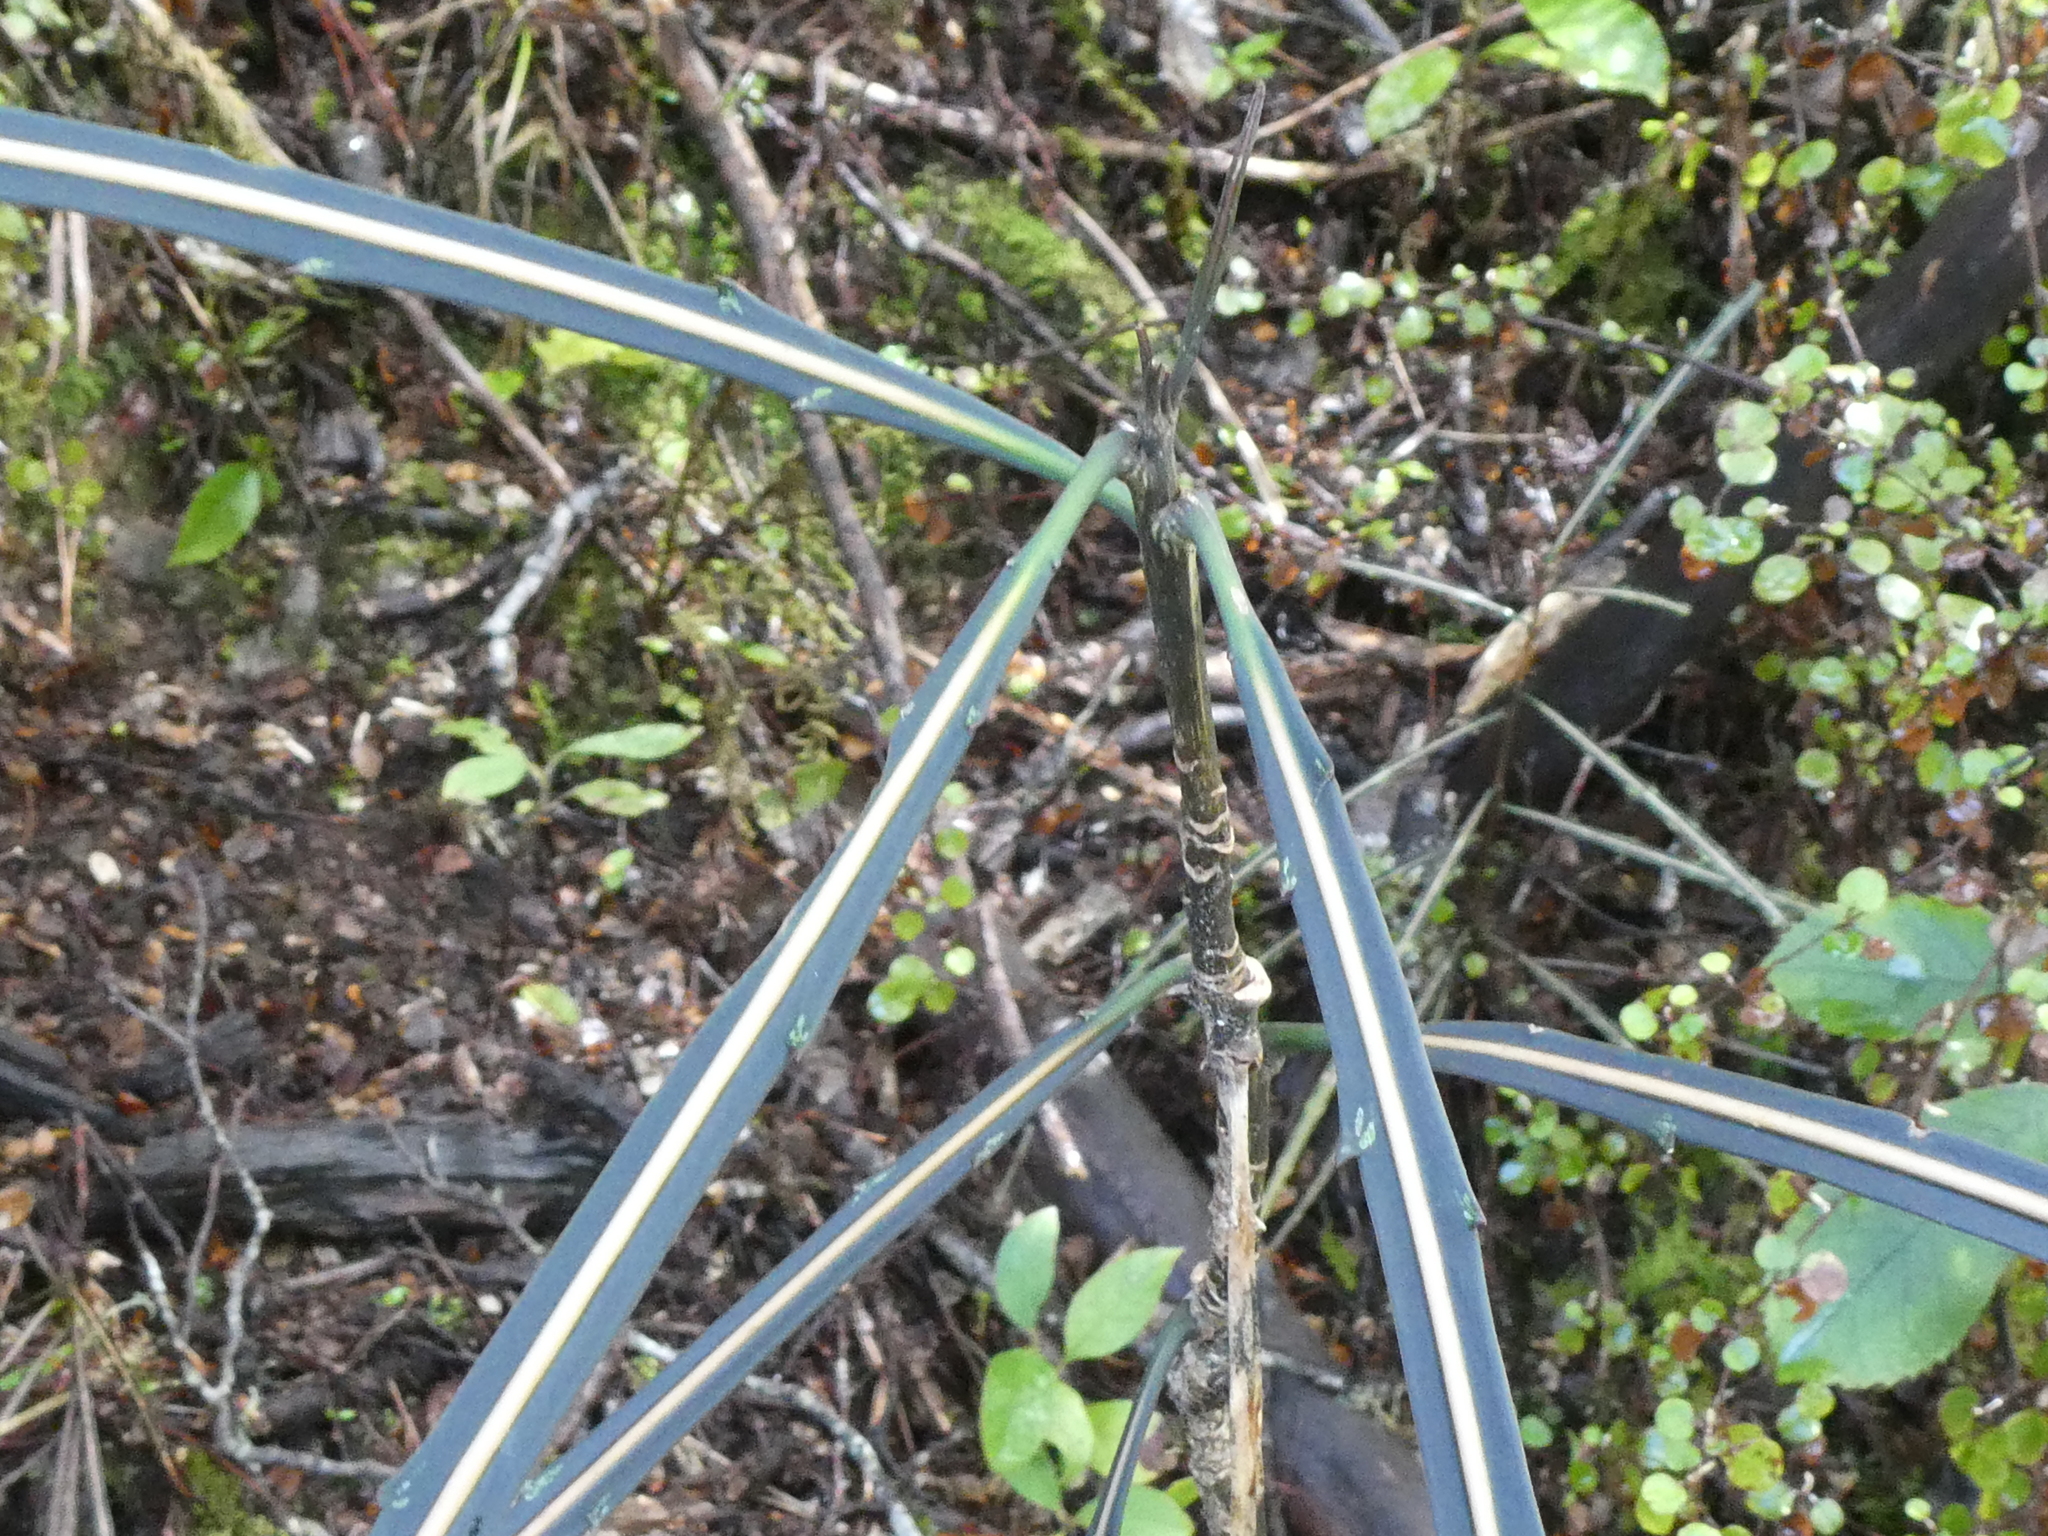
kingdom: Plantae
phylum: Tracheophyta
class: Magnoliopsida
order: Apiales
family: Araliaceae
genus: Pseudopanax
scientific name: Pseudopanax crassifolius
